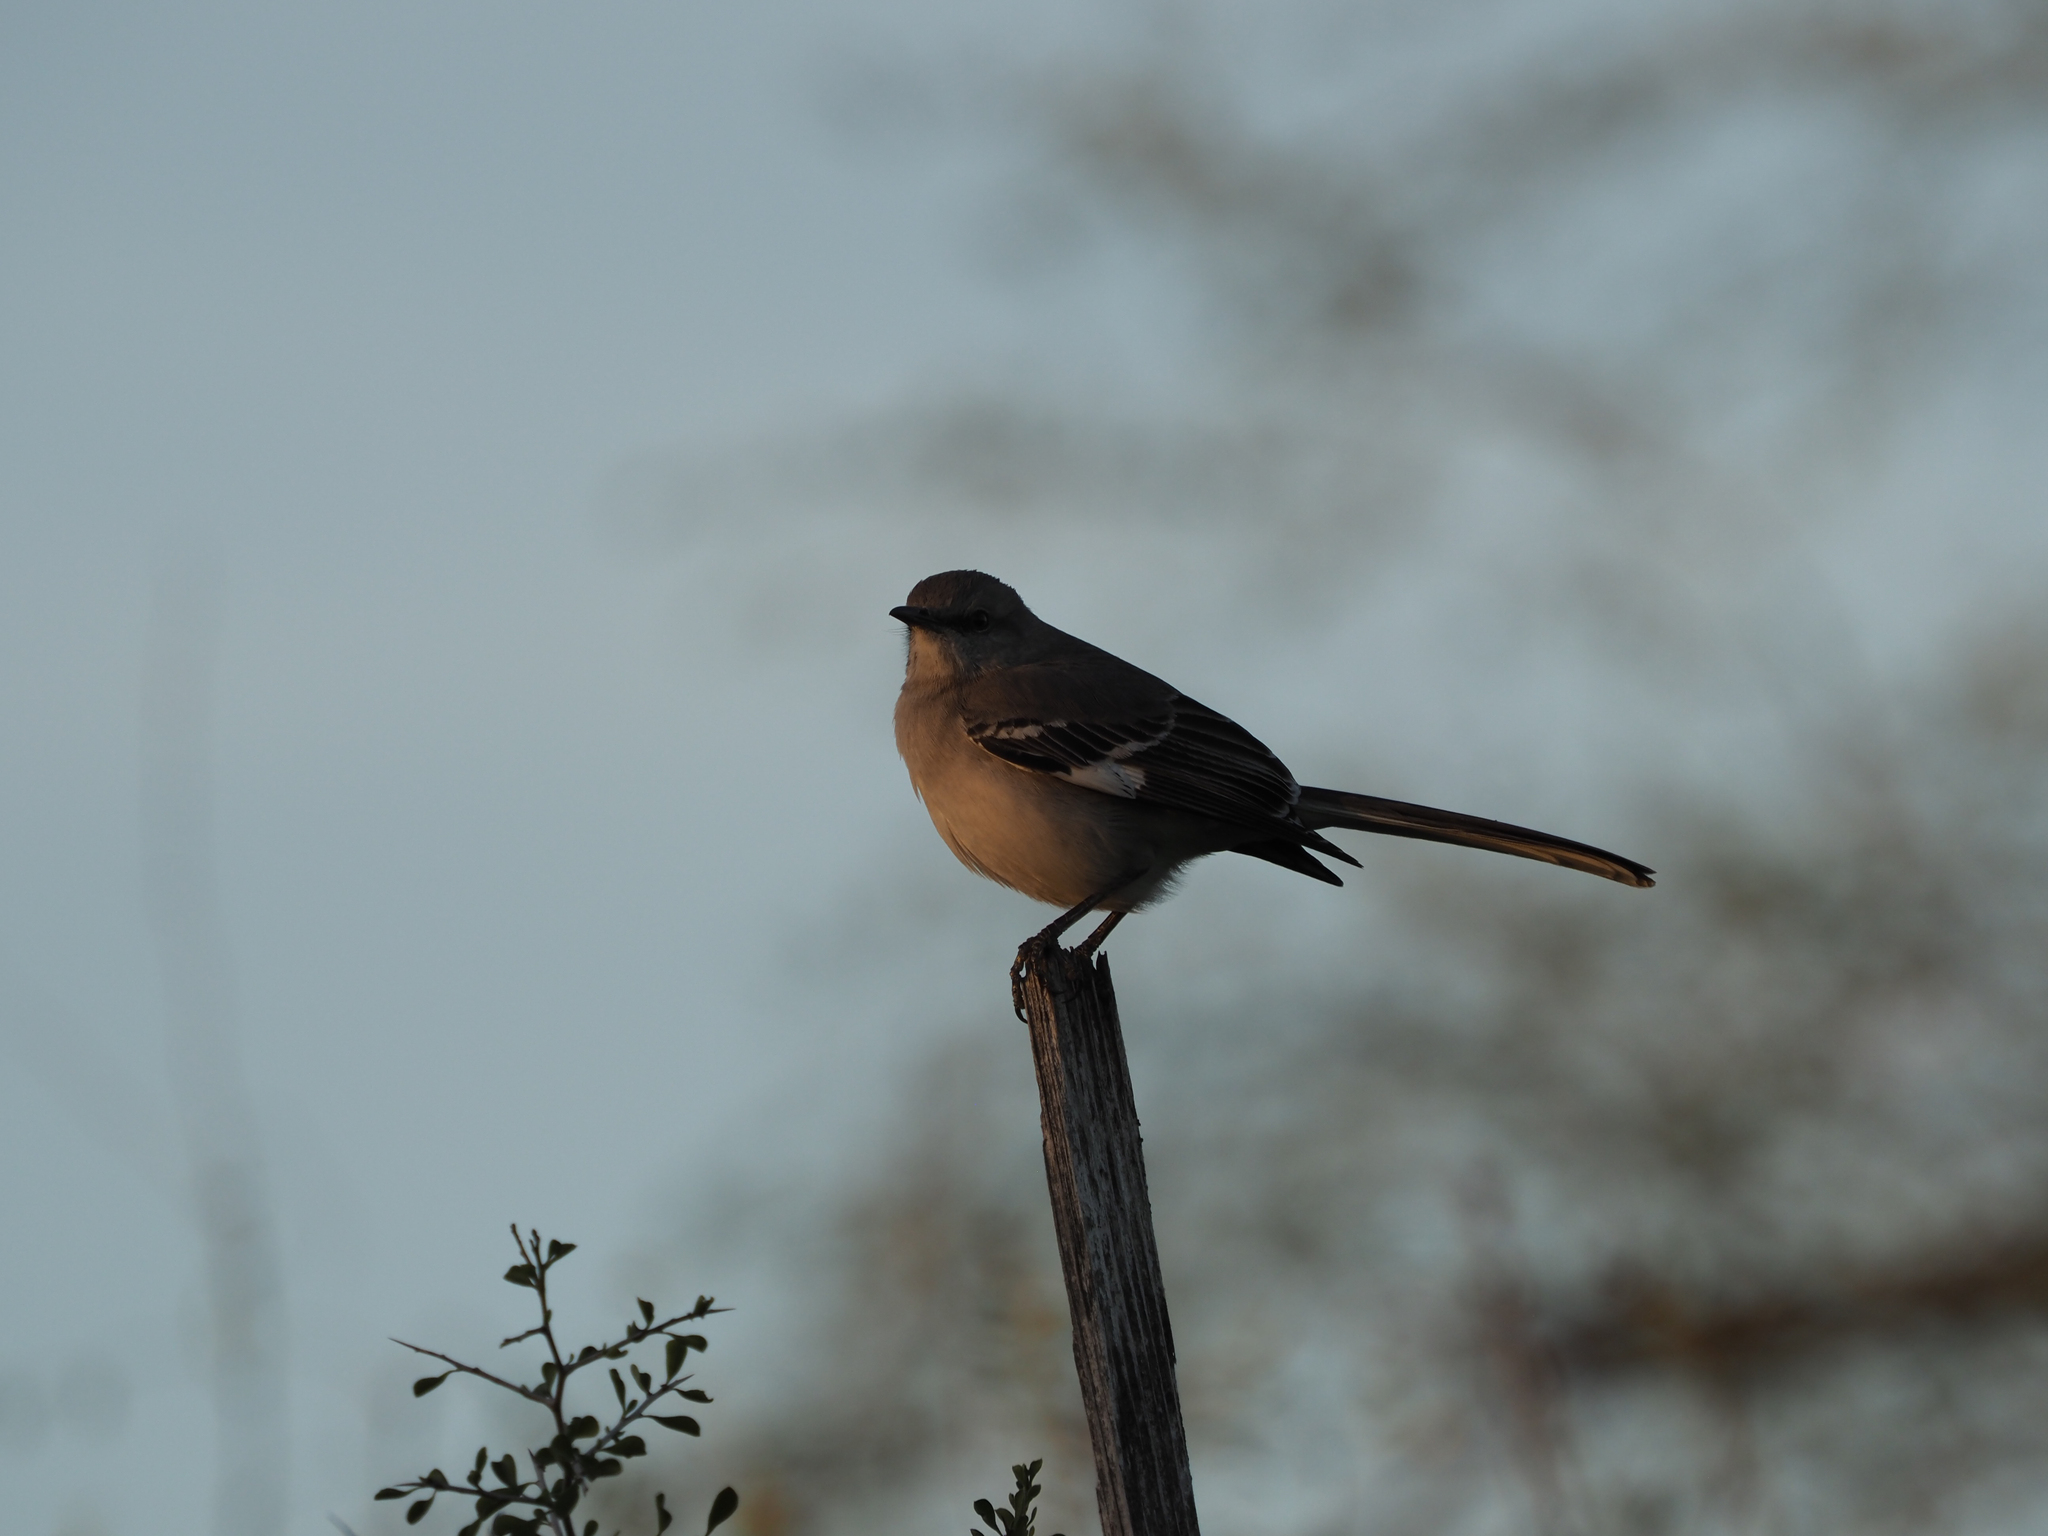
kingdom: Animalia
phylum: Chordata
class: Aves
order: Passeriformes
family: Mimidae
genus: Mimus
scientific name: Mimus polyglottos
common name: Northern mockingbird
